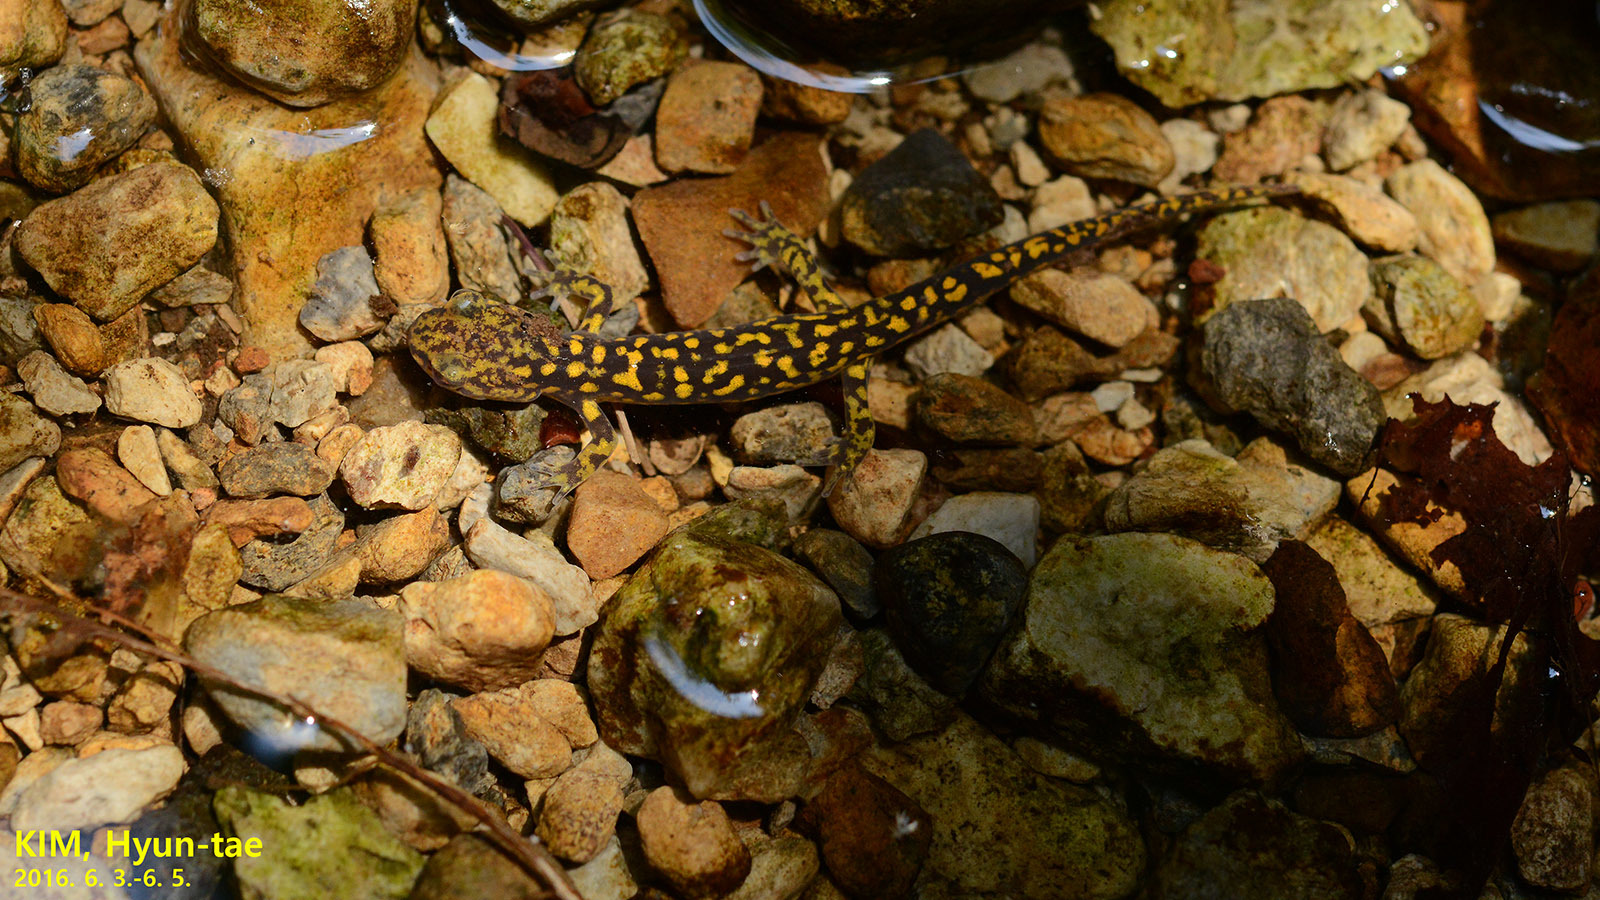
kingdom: Animalia
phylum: Chordata
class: Amphibia
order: Caudata
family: Hynobiidae
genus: Onychodactylus
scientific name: Onychodactylus koreanus
